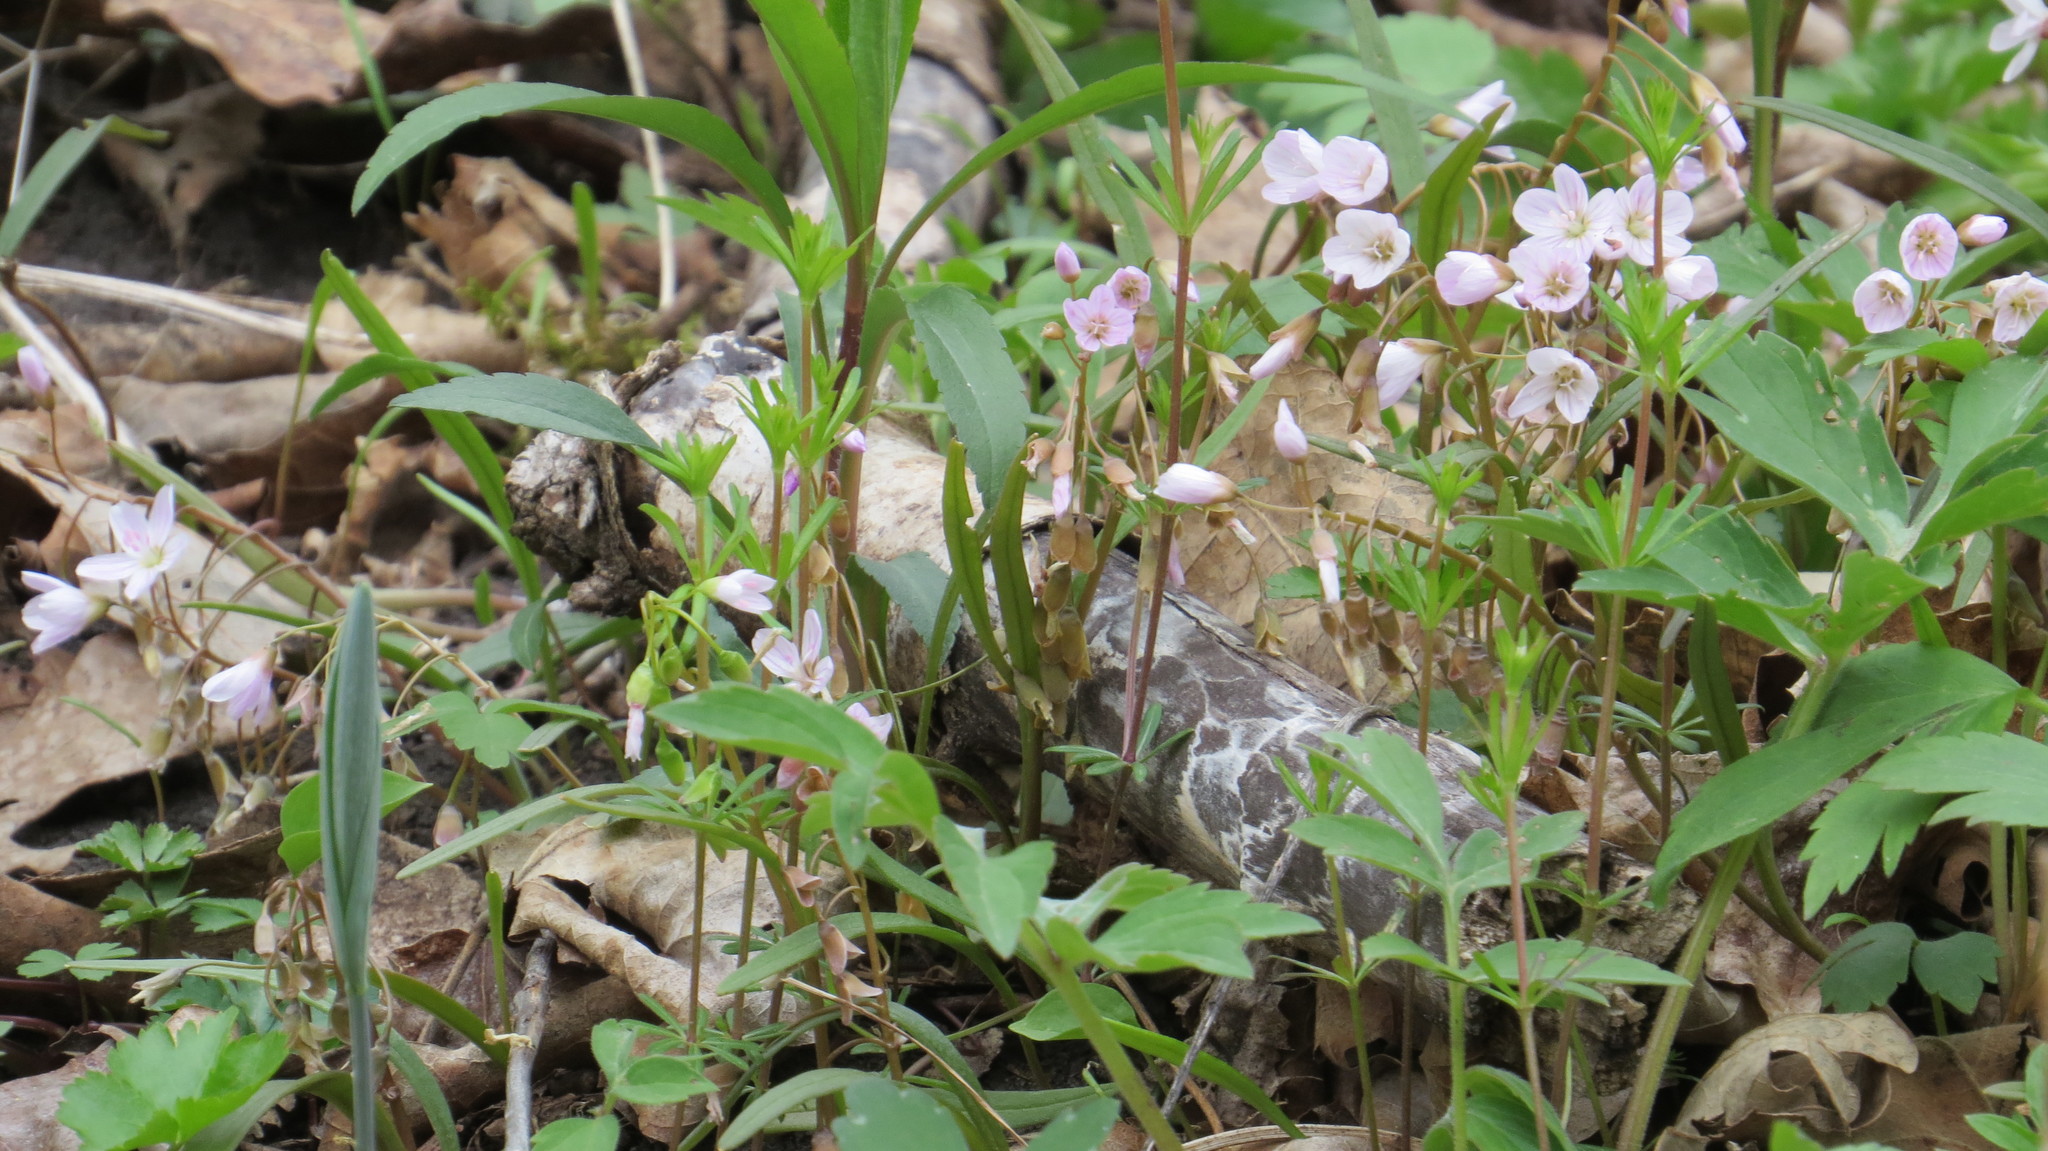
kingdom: Plantae
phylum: Tracheophyta
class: Magnoliopsida
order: Caryophyllales
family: Montiaceae
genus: Claytonia
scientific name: Claytonia virginica
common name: Virginia springbeauty
